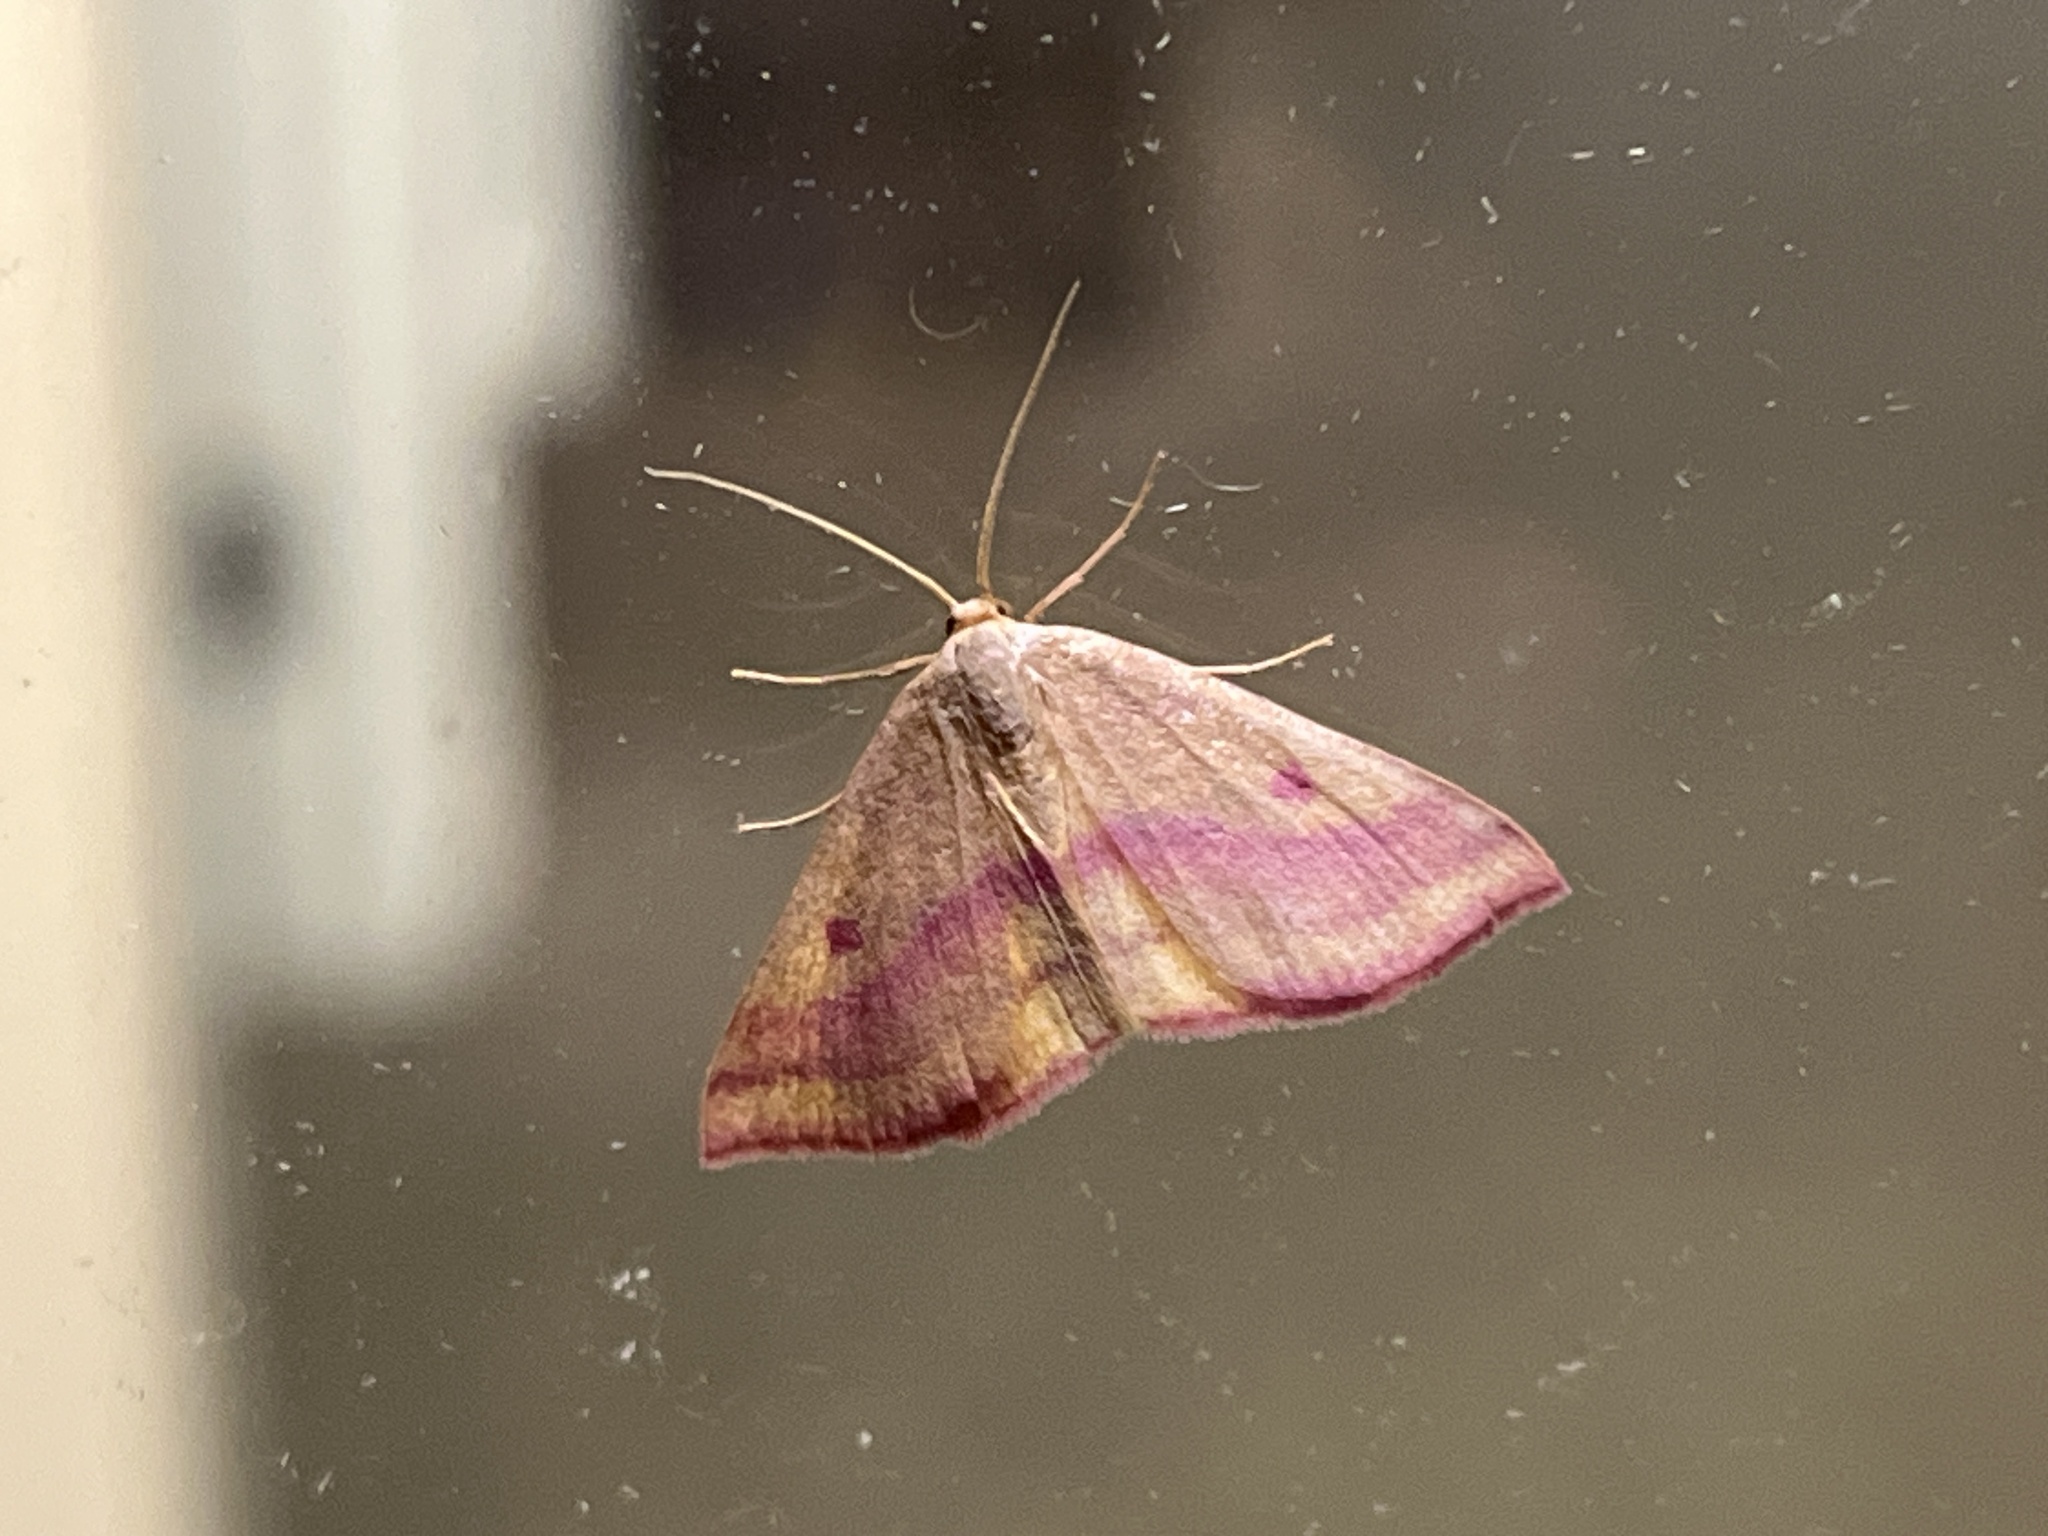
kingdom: Animalia
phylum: Arthropoda
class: Insecta
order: Lepidoptera
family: Geometridae
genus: Haematopis
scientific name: Haematopis grataria
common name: Chickweed geometer
